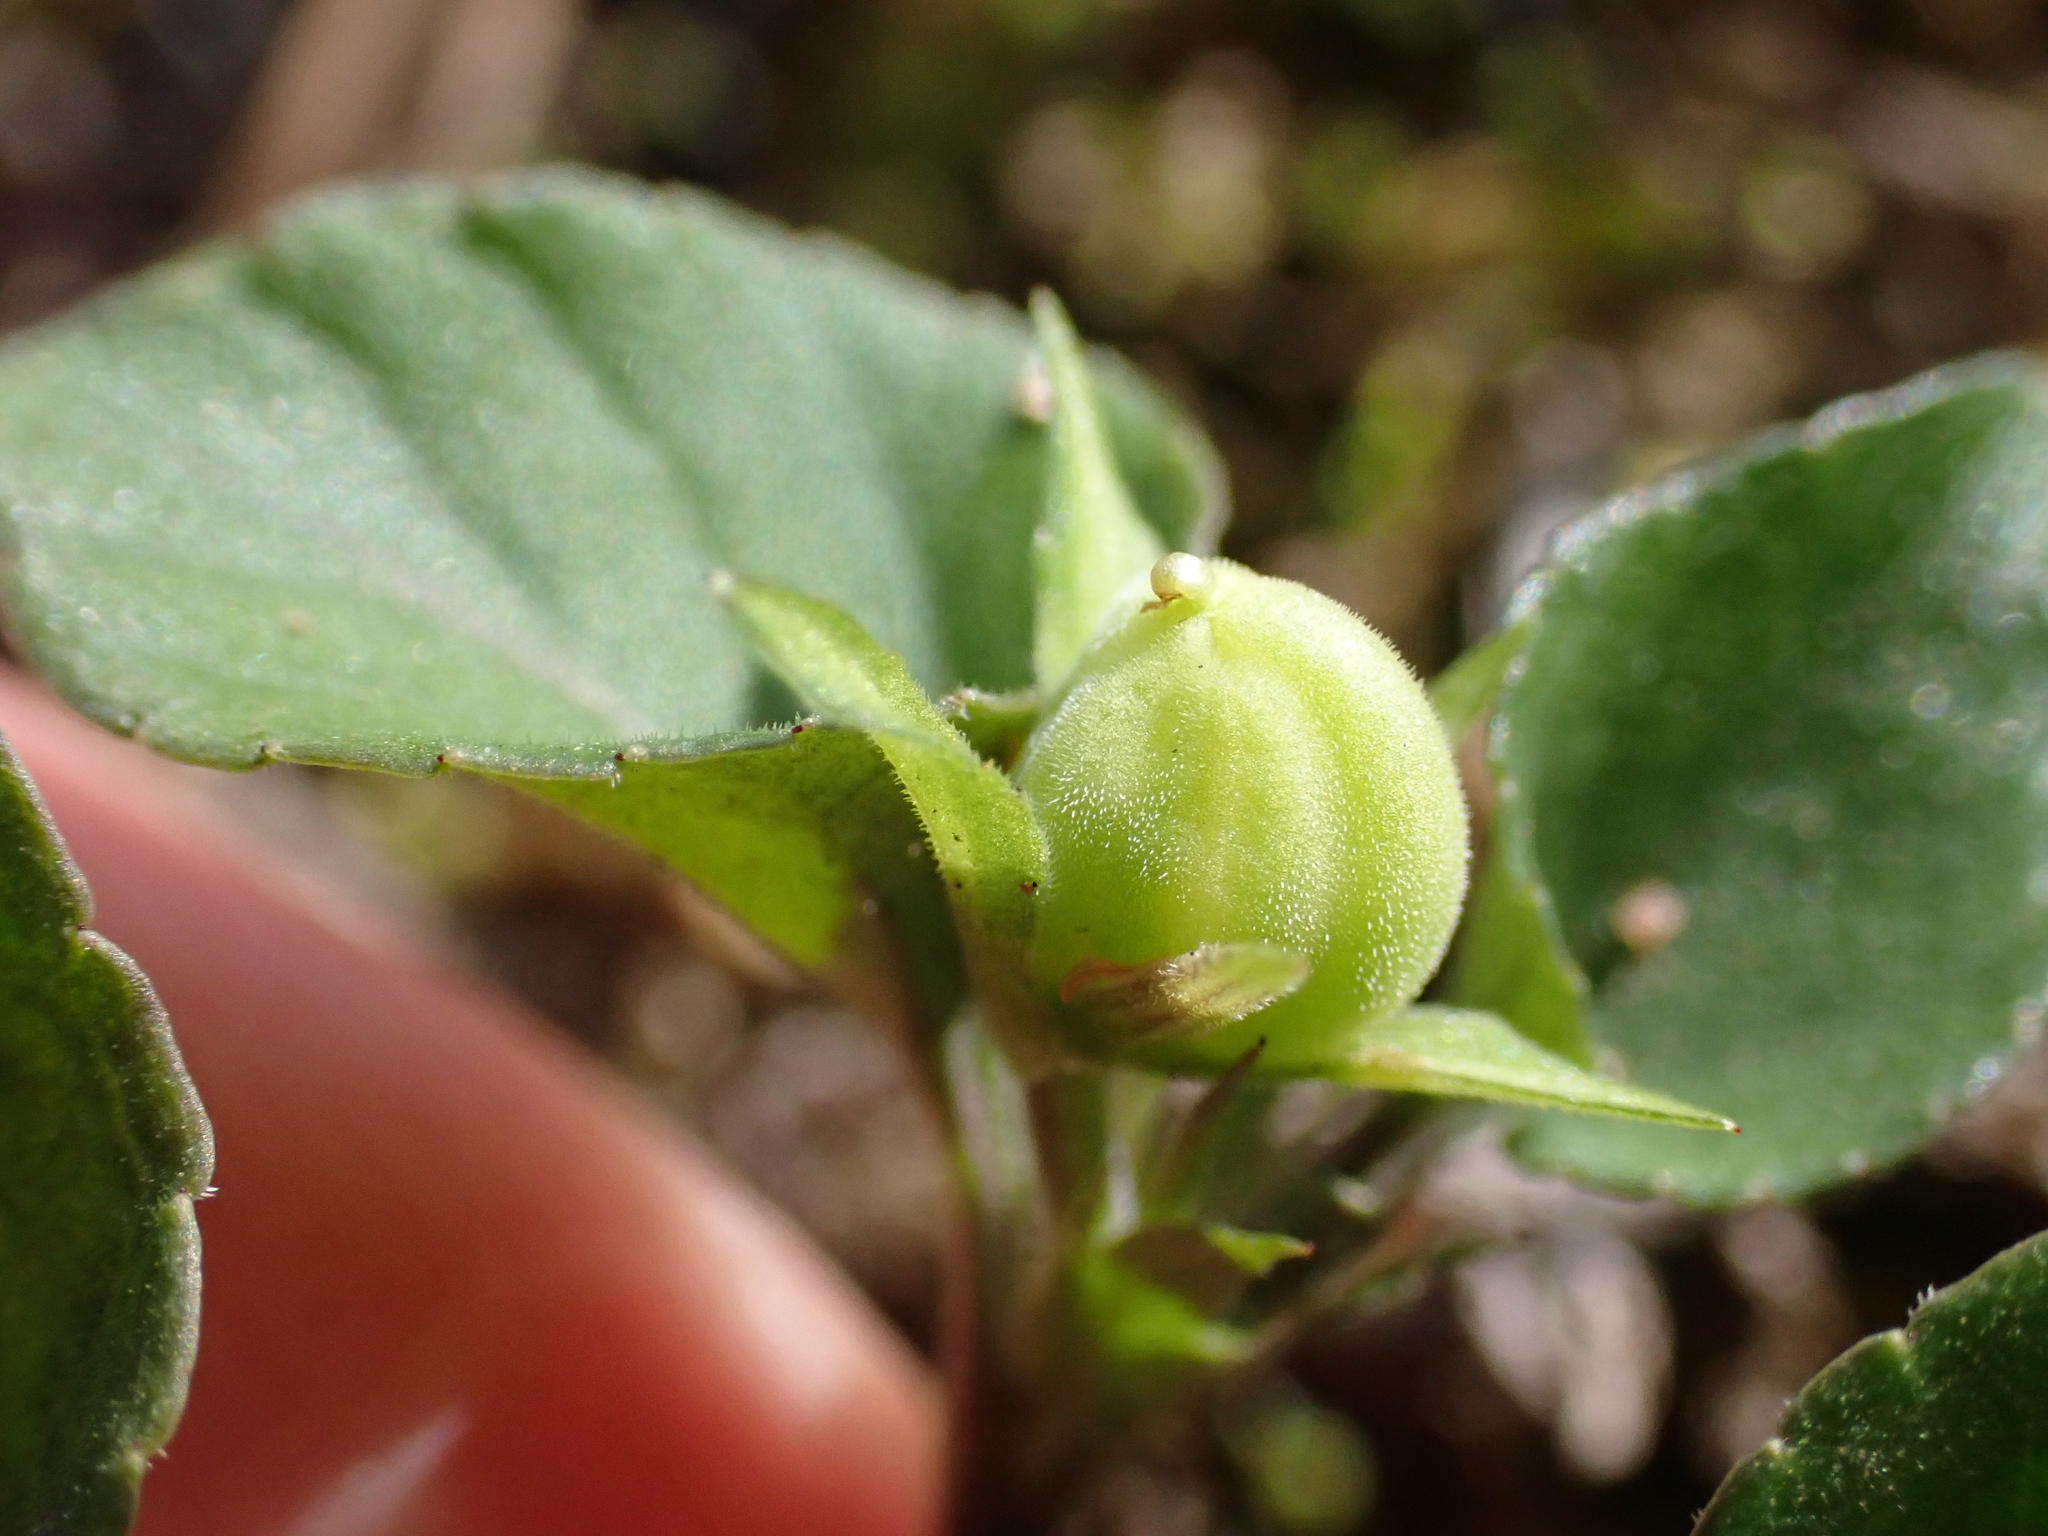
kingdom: Plantae
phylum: Tracheophyta
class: Magnoliopsida
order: Malpighiales
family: Violaceae
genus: Viola
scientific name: Viola rupestris
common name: Teesdale violet
